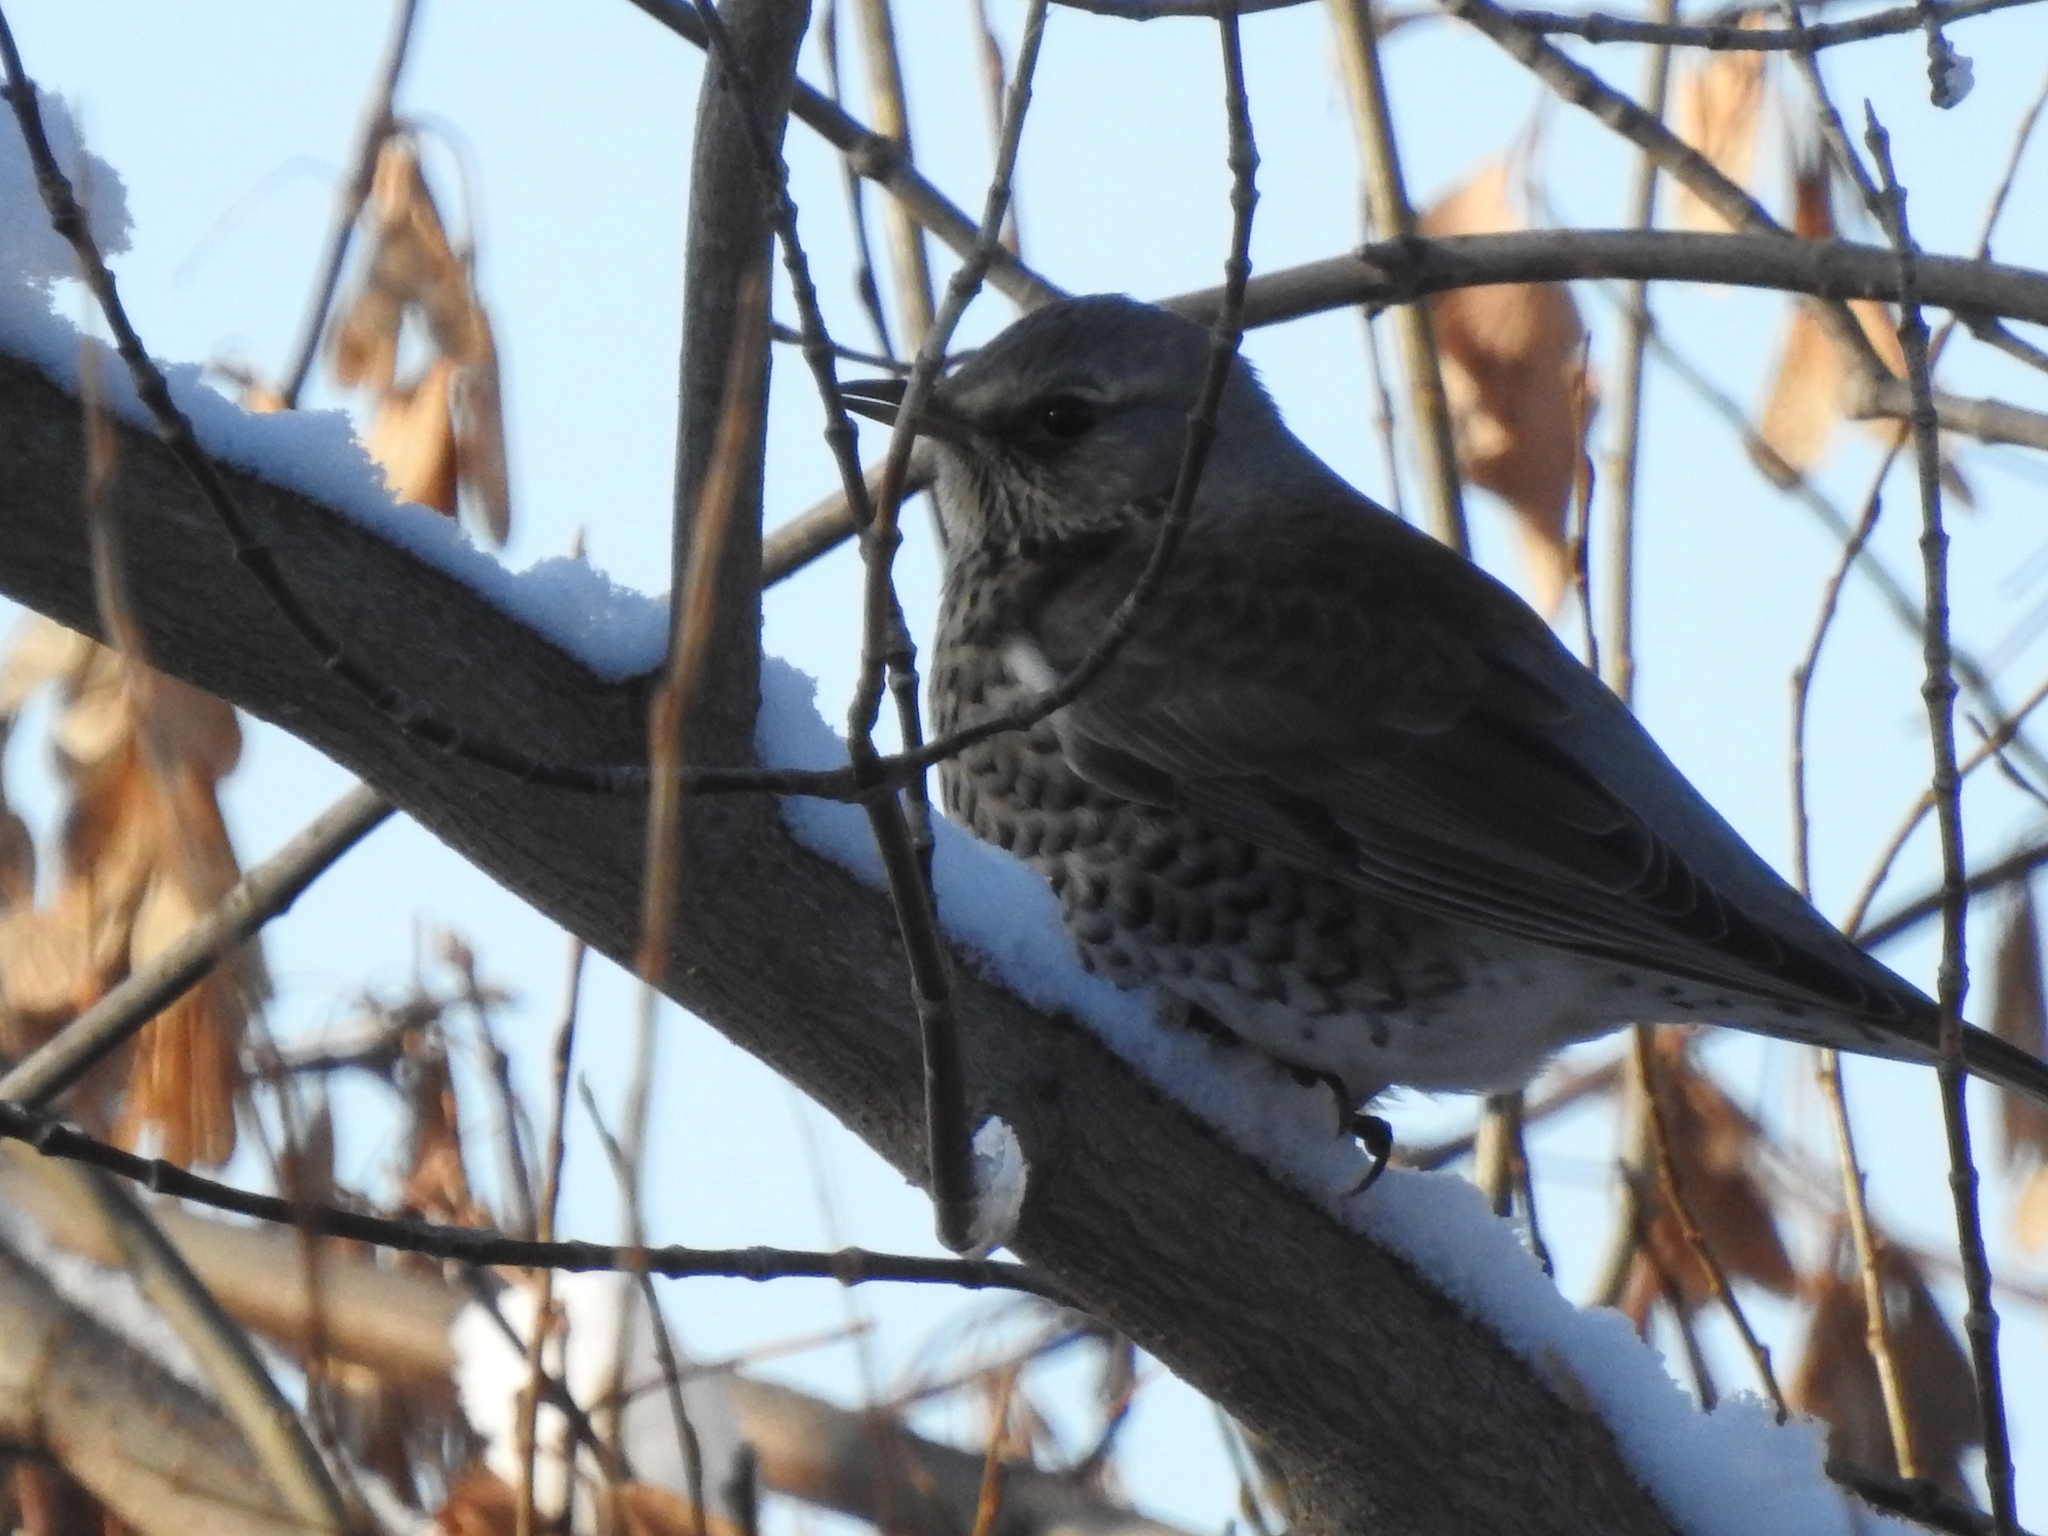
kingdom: Animalia
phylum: Chordata
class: Aves
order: Passeriformes
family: Turdidae
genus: Turdus
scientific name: Turdus pilaris
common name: Fieldfare
